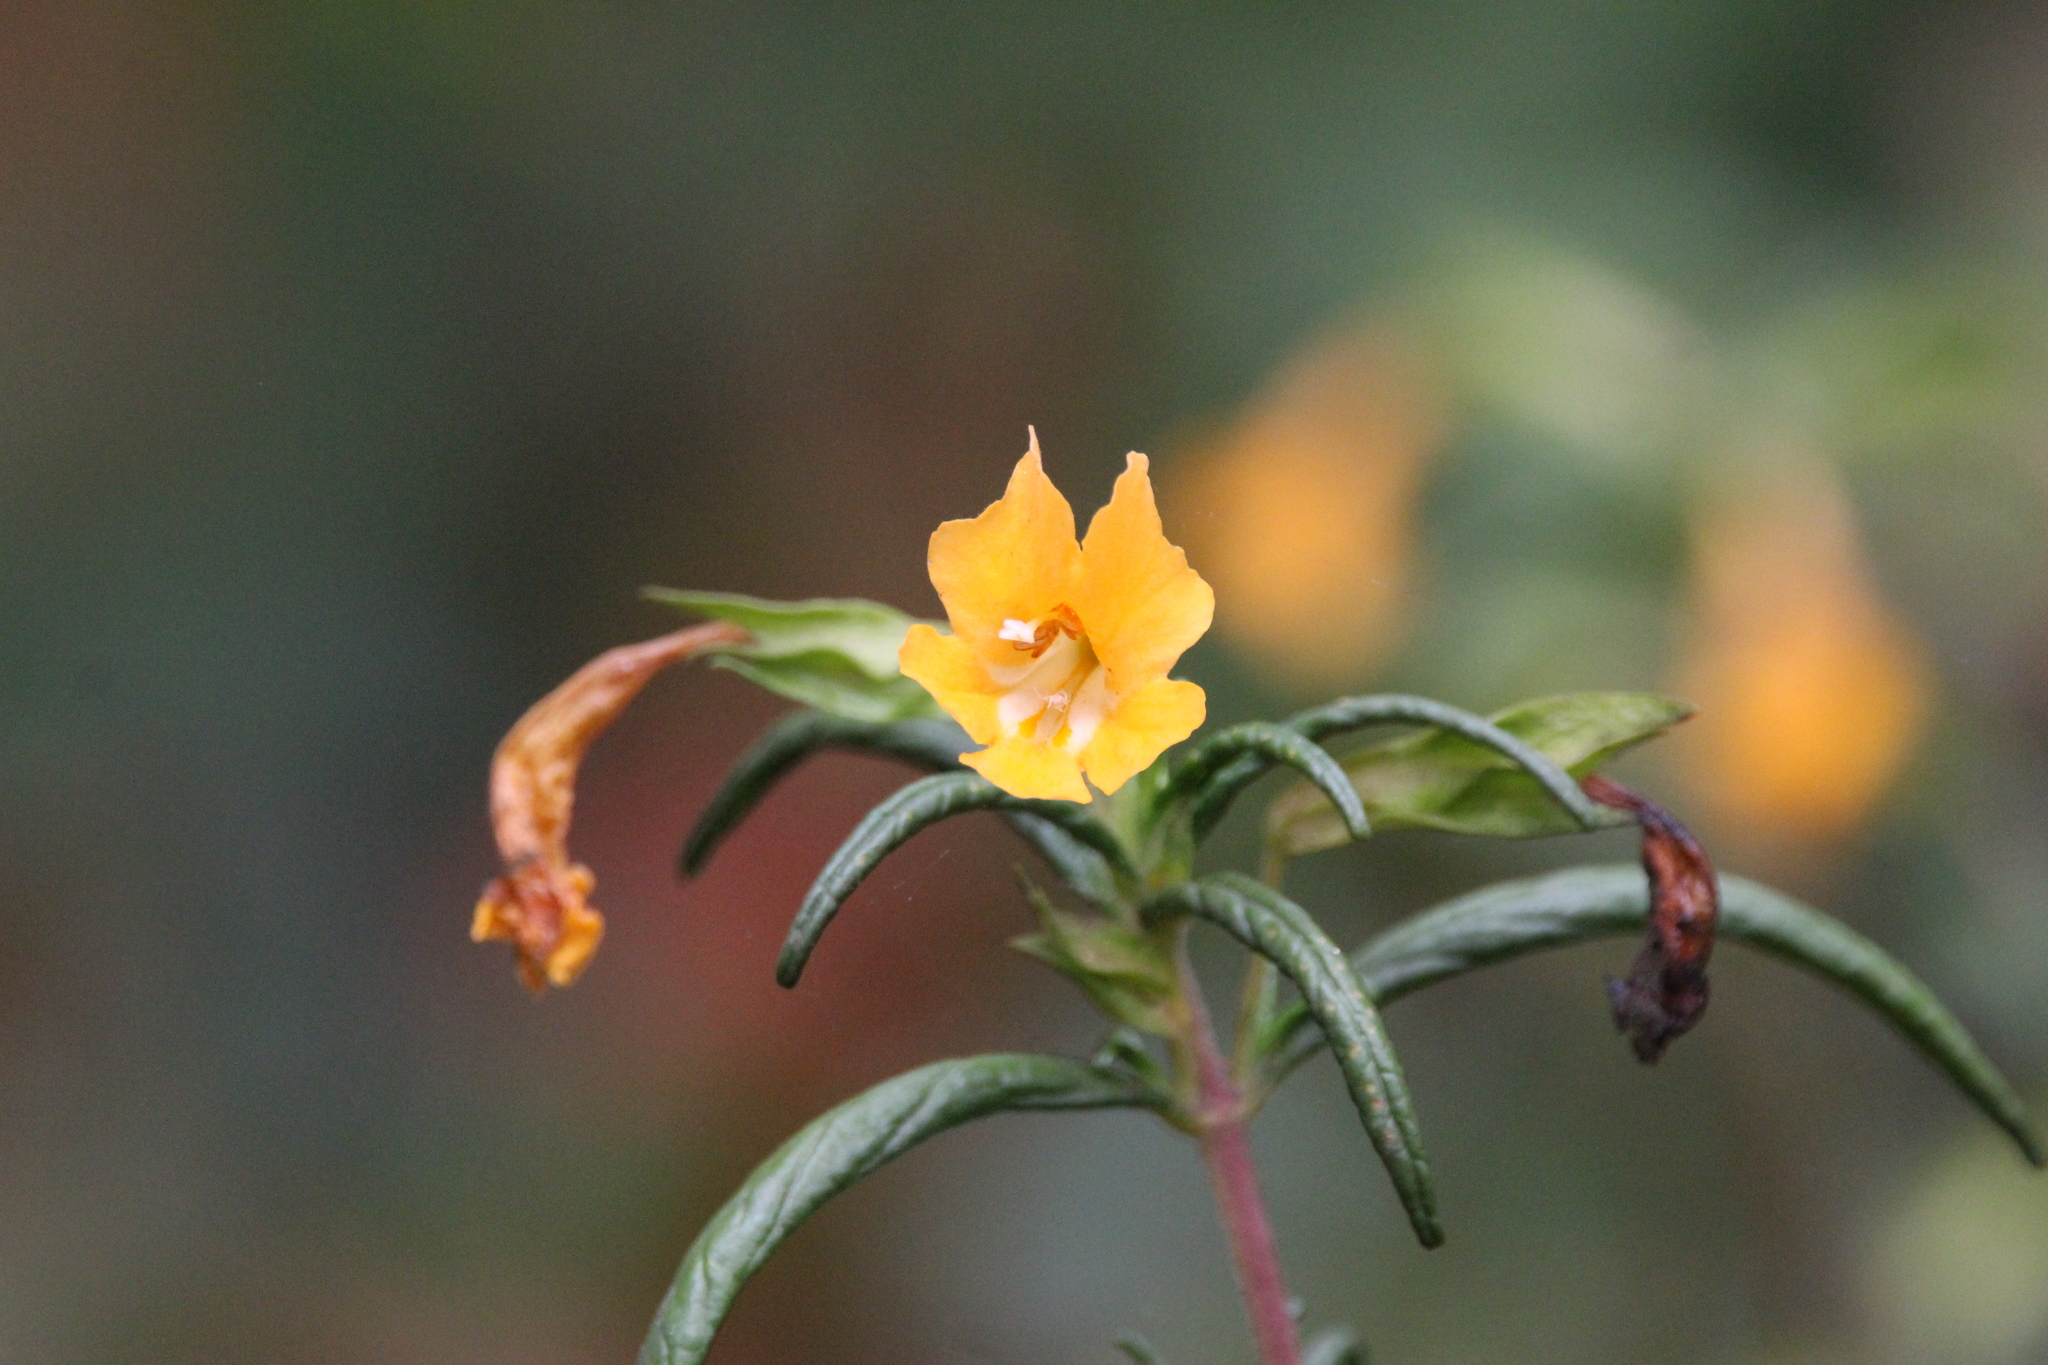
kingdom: Plantae
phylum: Tracheophyta
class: Magnoliopsida
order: Lamiales
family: Phrymaceae
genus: Diplacus
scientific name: Diplacus aurantiacus
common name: Bush monkey-flower
